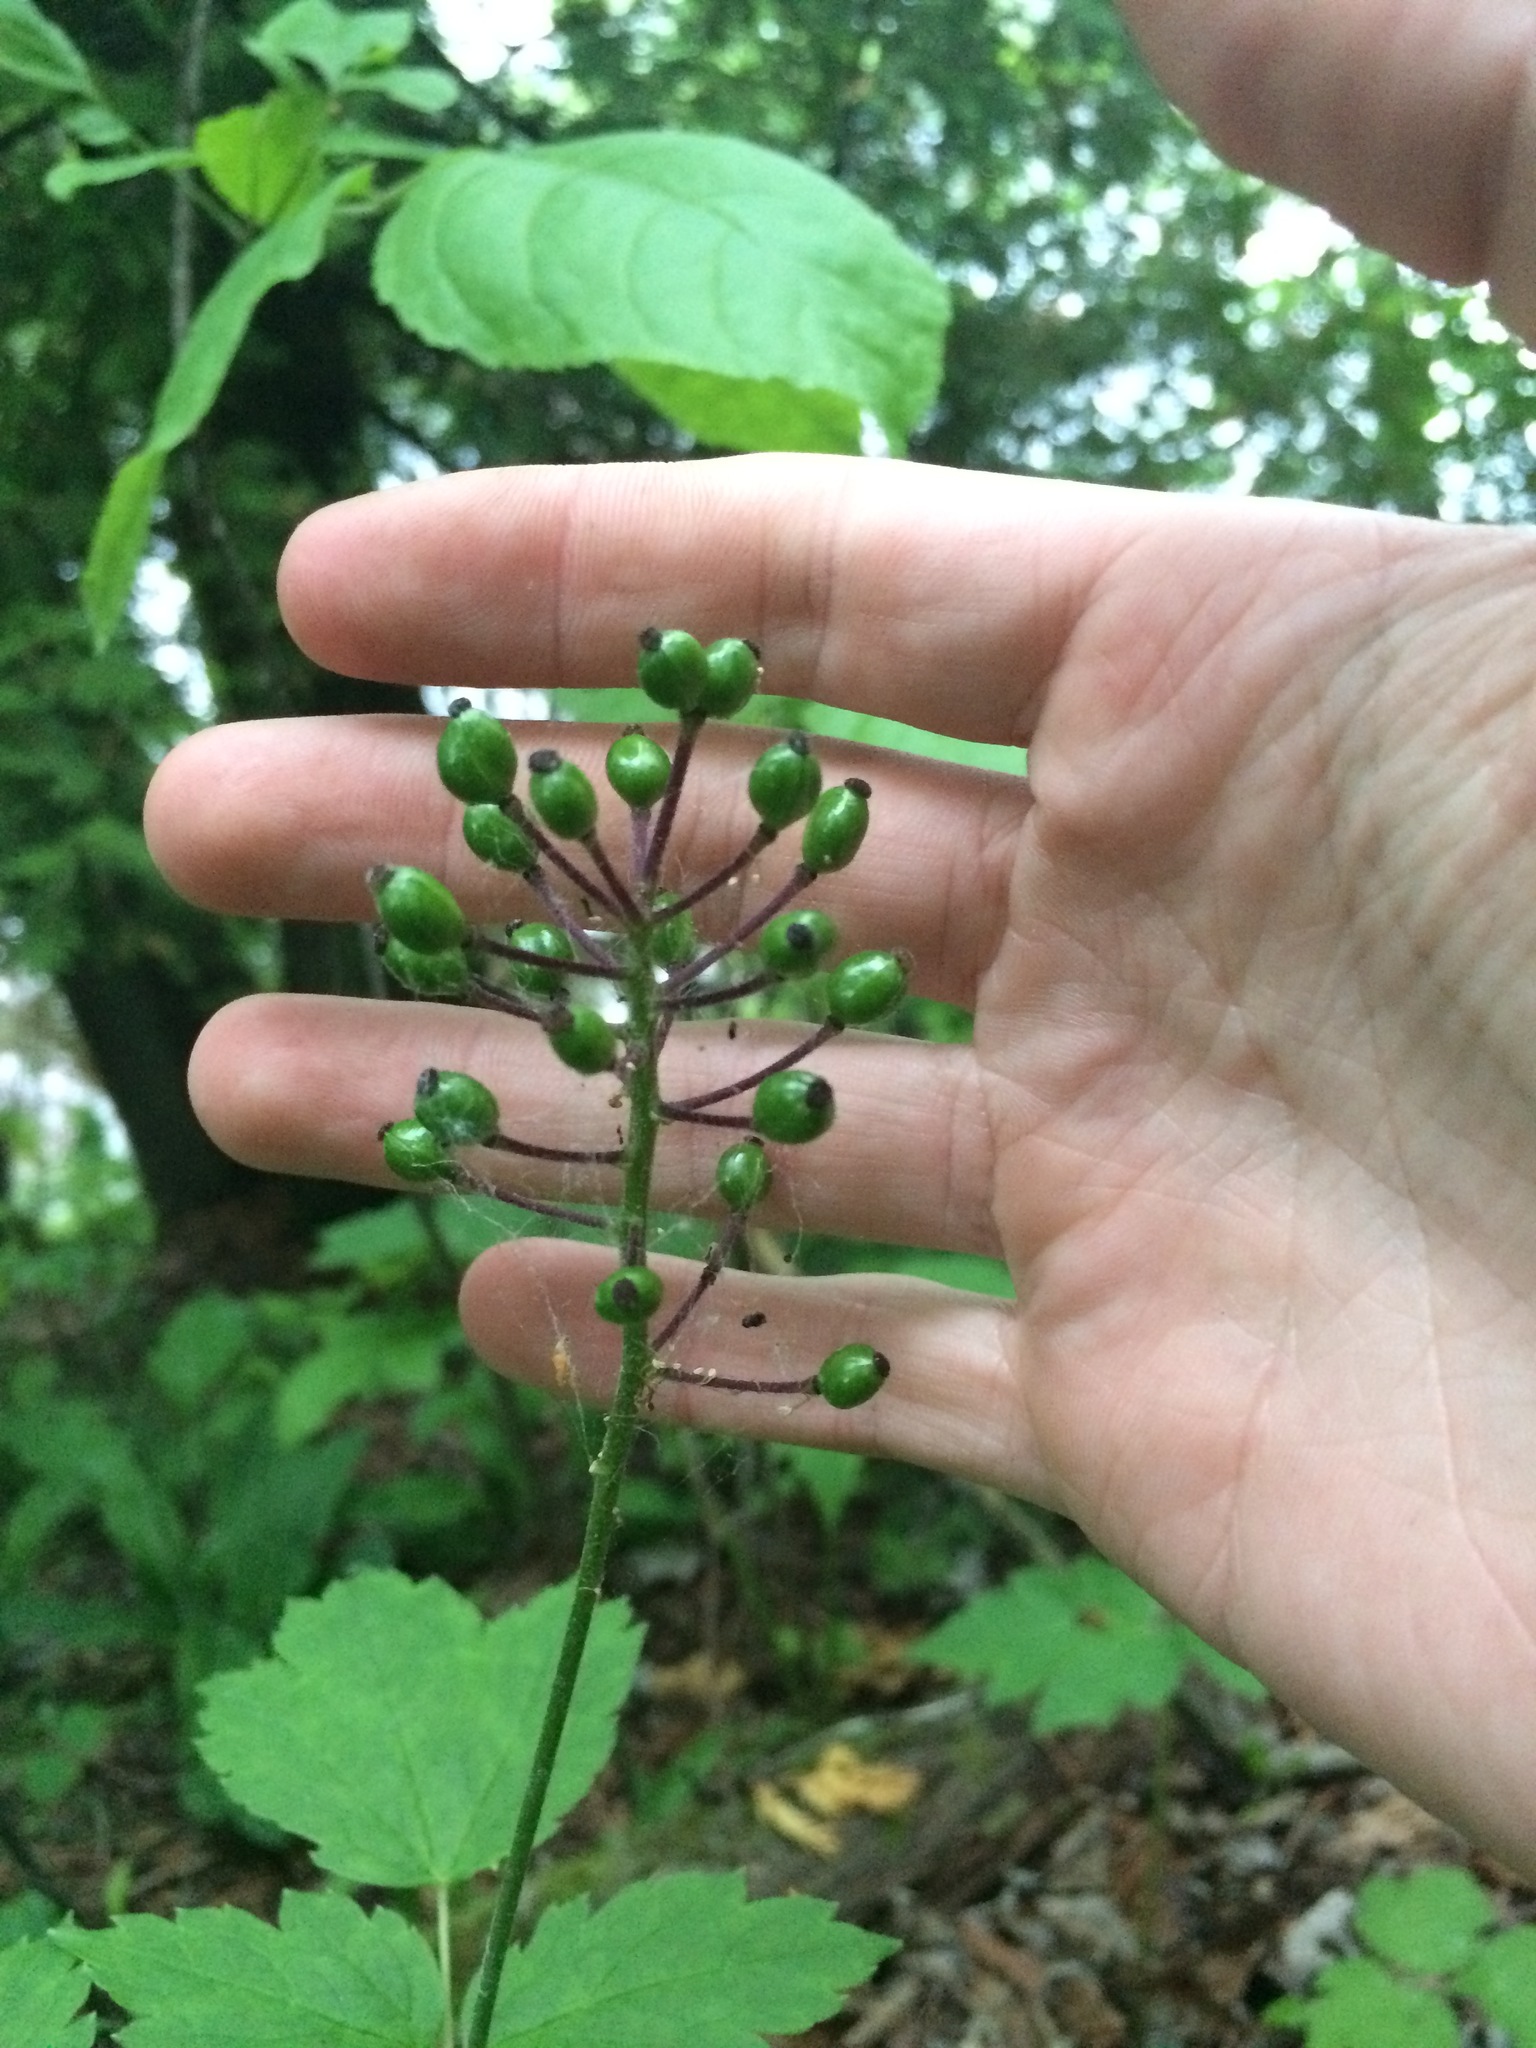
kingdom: Plantae
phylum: Tracheophyta
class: Magnoliopsida
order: Ranunculales
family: Ranunculaceae
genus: Actaea
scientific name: Actaea rubra
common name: Red baneberry
